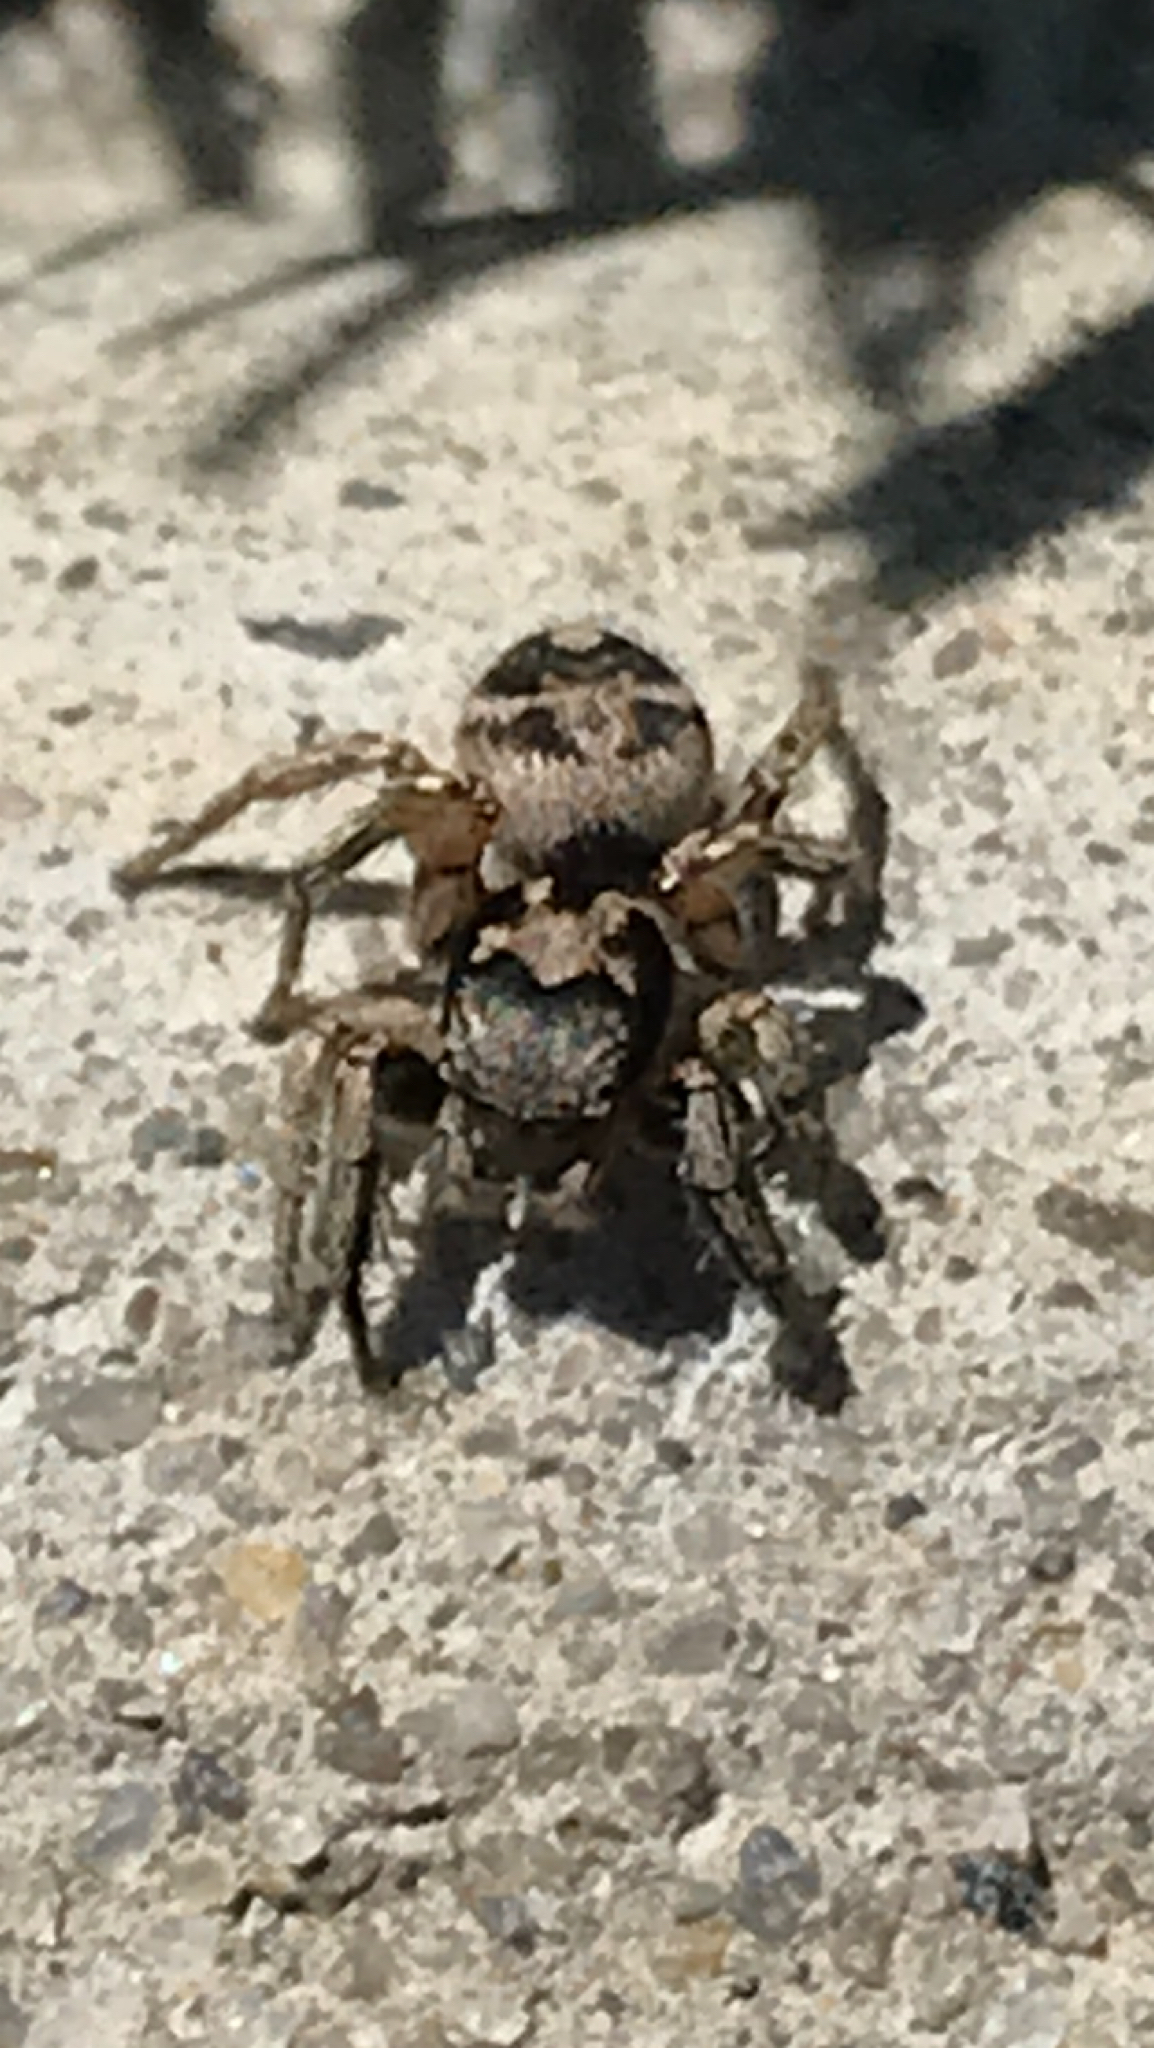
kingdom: Animalia
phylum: Arthropoda
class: Arachnida
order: Araneae
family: Salticidae
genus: Habronattus
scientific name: Habronattus coecatus
